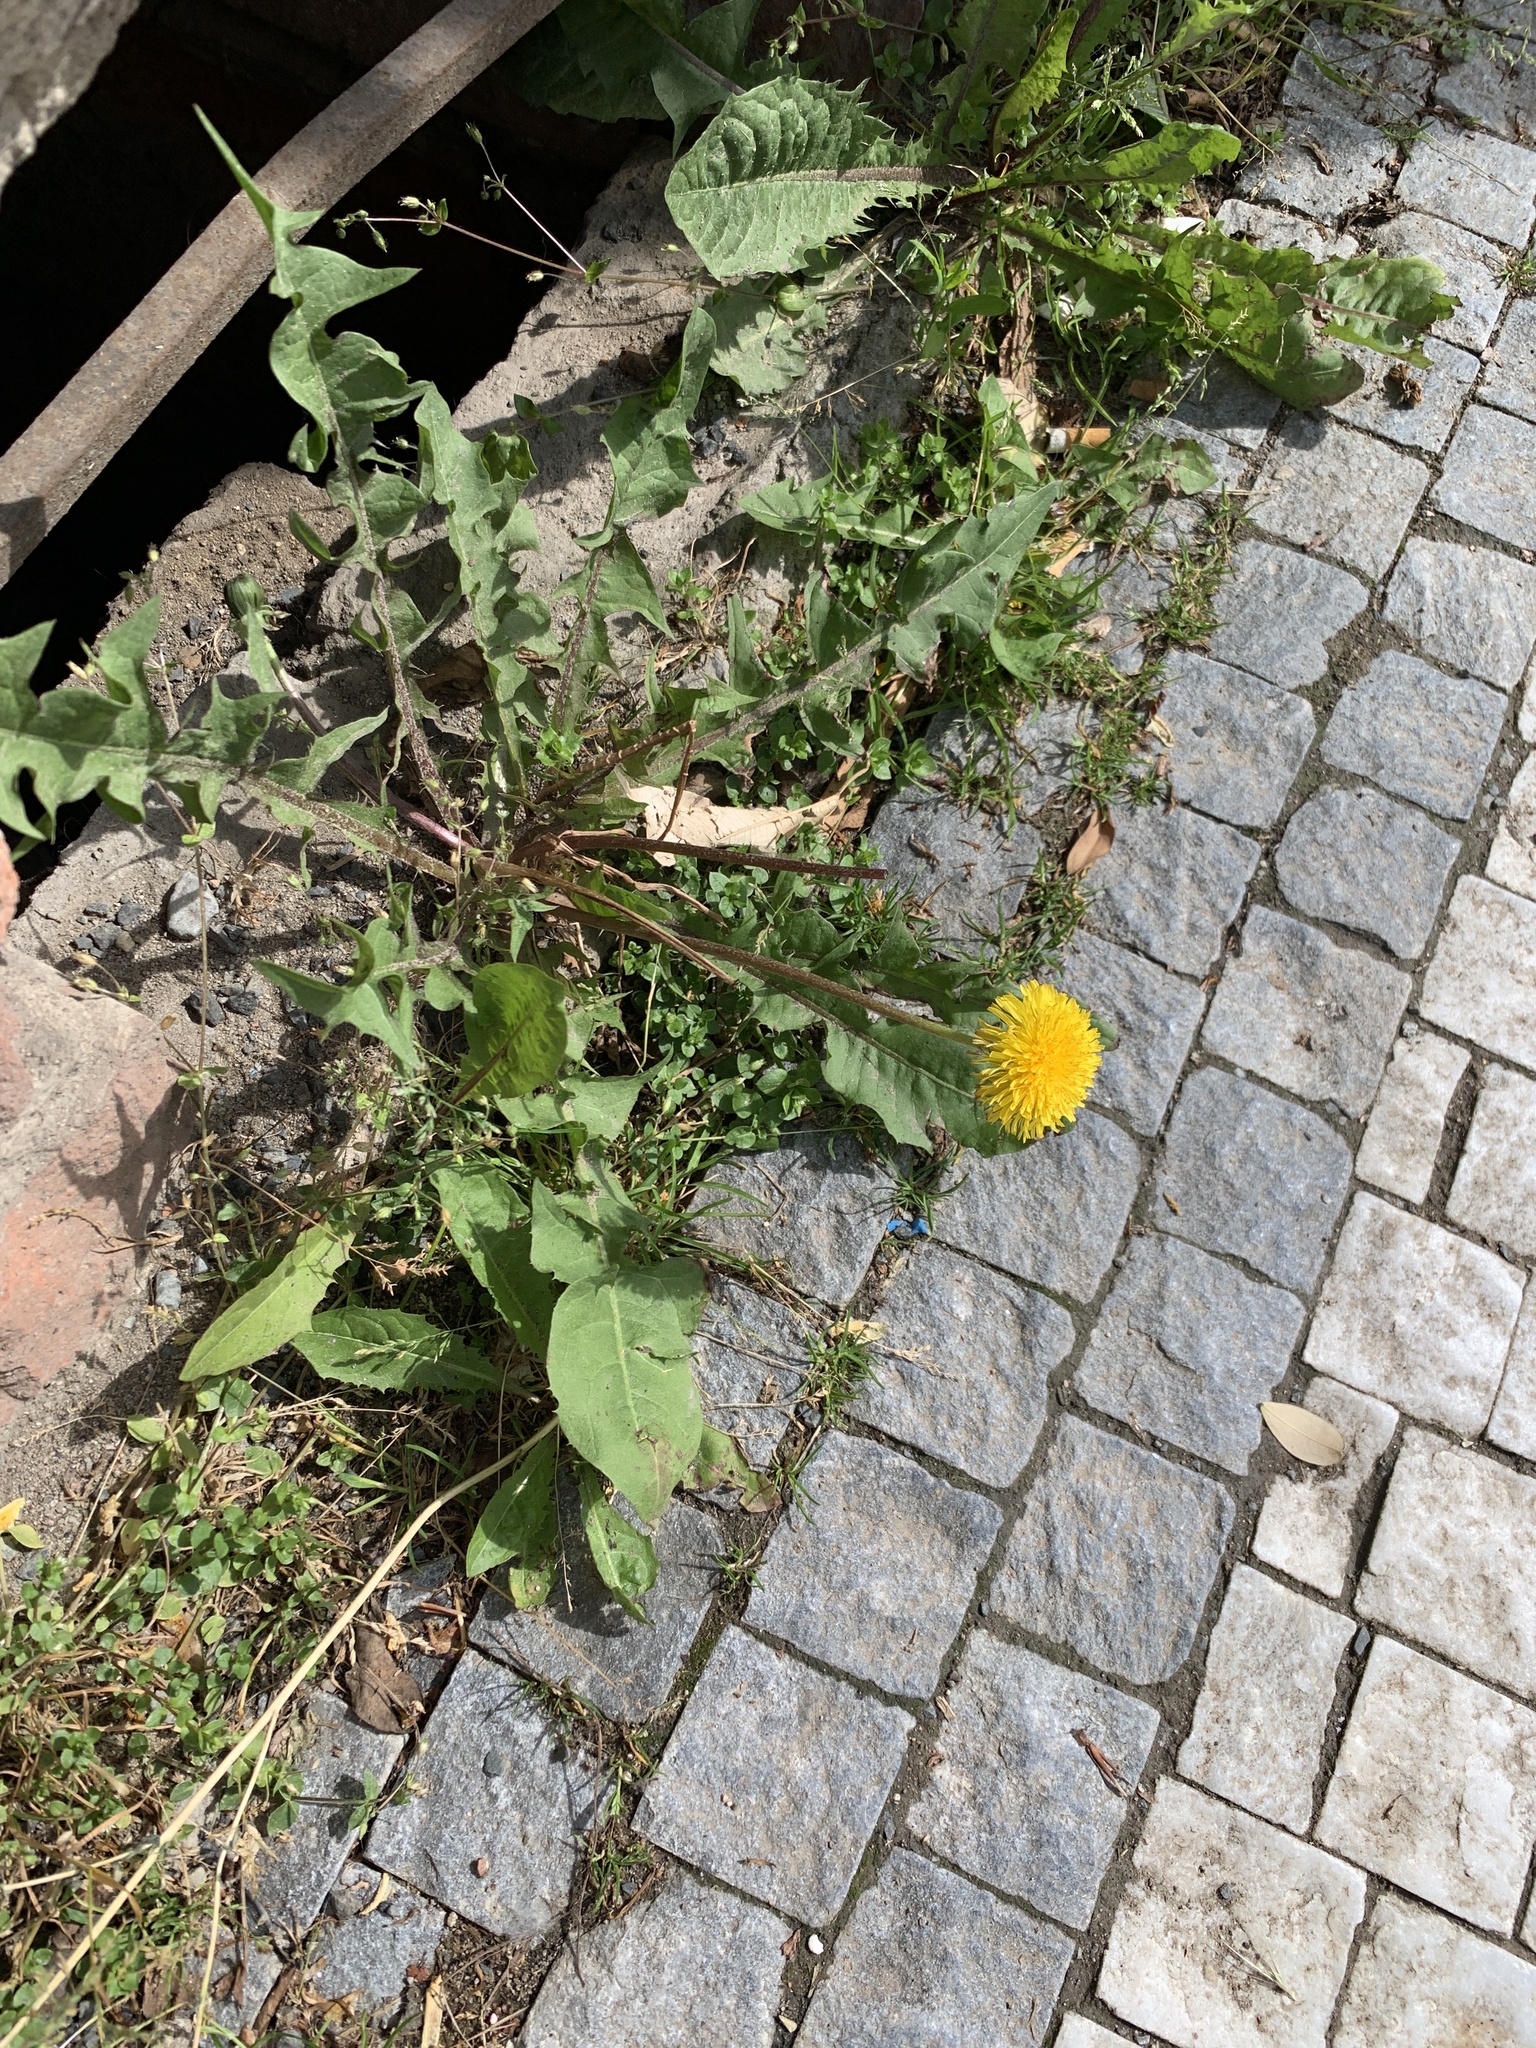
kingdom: Plantae
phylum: Tracheophyta
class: Magnoliopsida
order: Asterales
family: Asteraceae
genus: Taraxacum
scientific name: Taraxacum officinale
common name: Common dandelion
